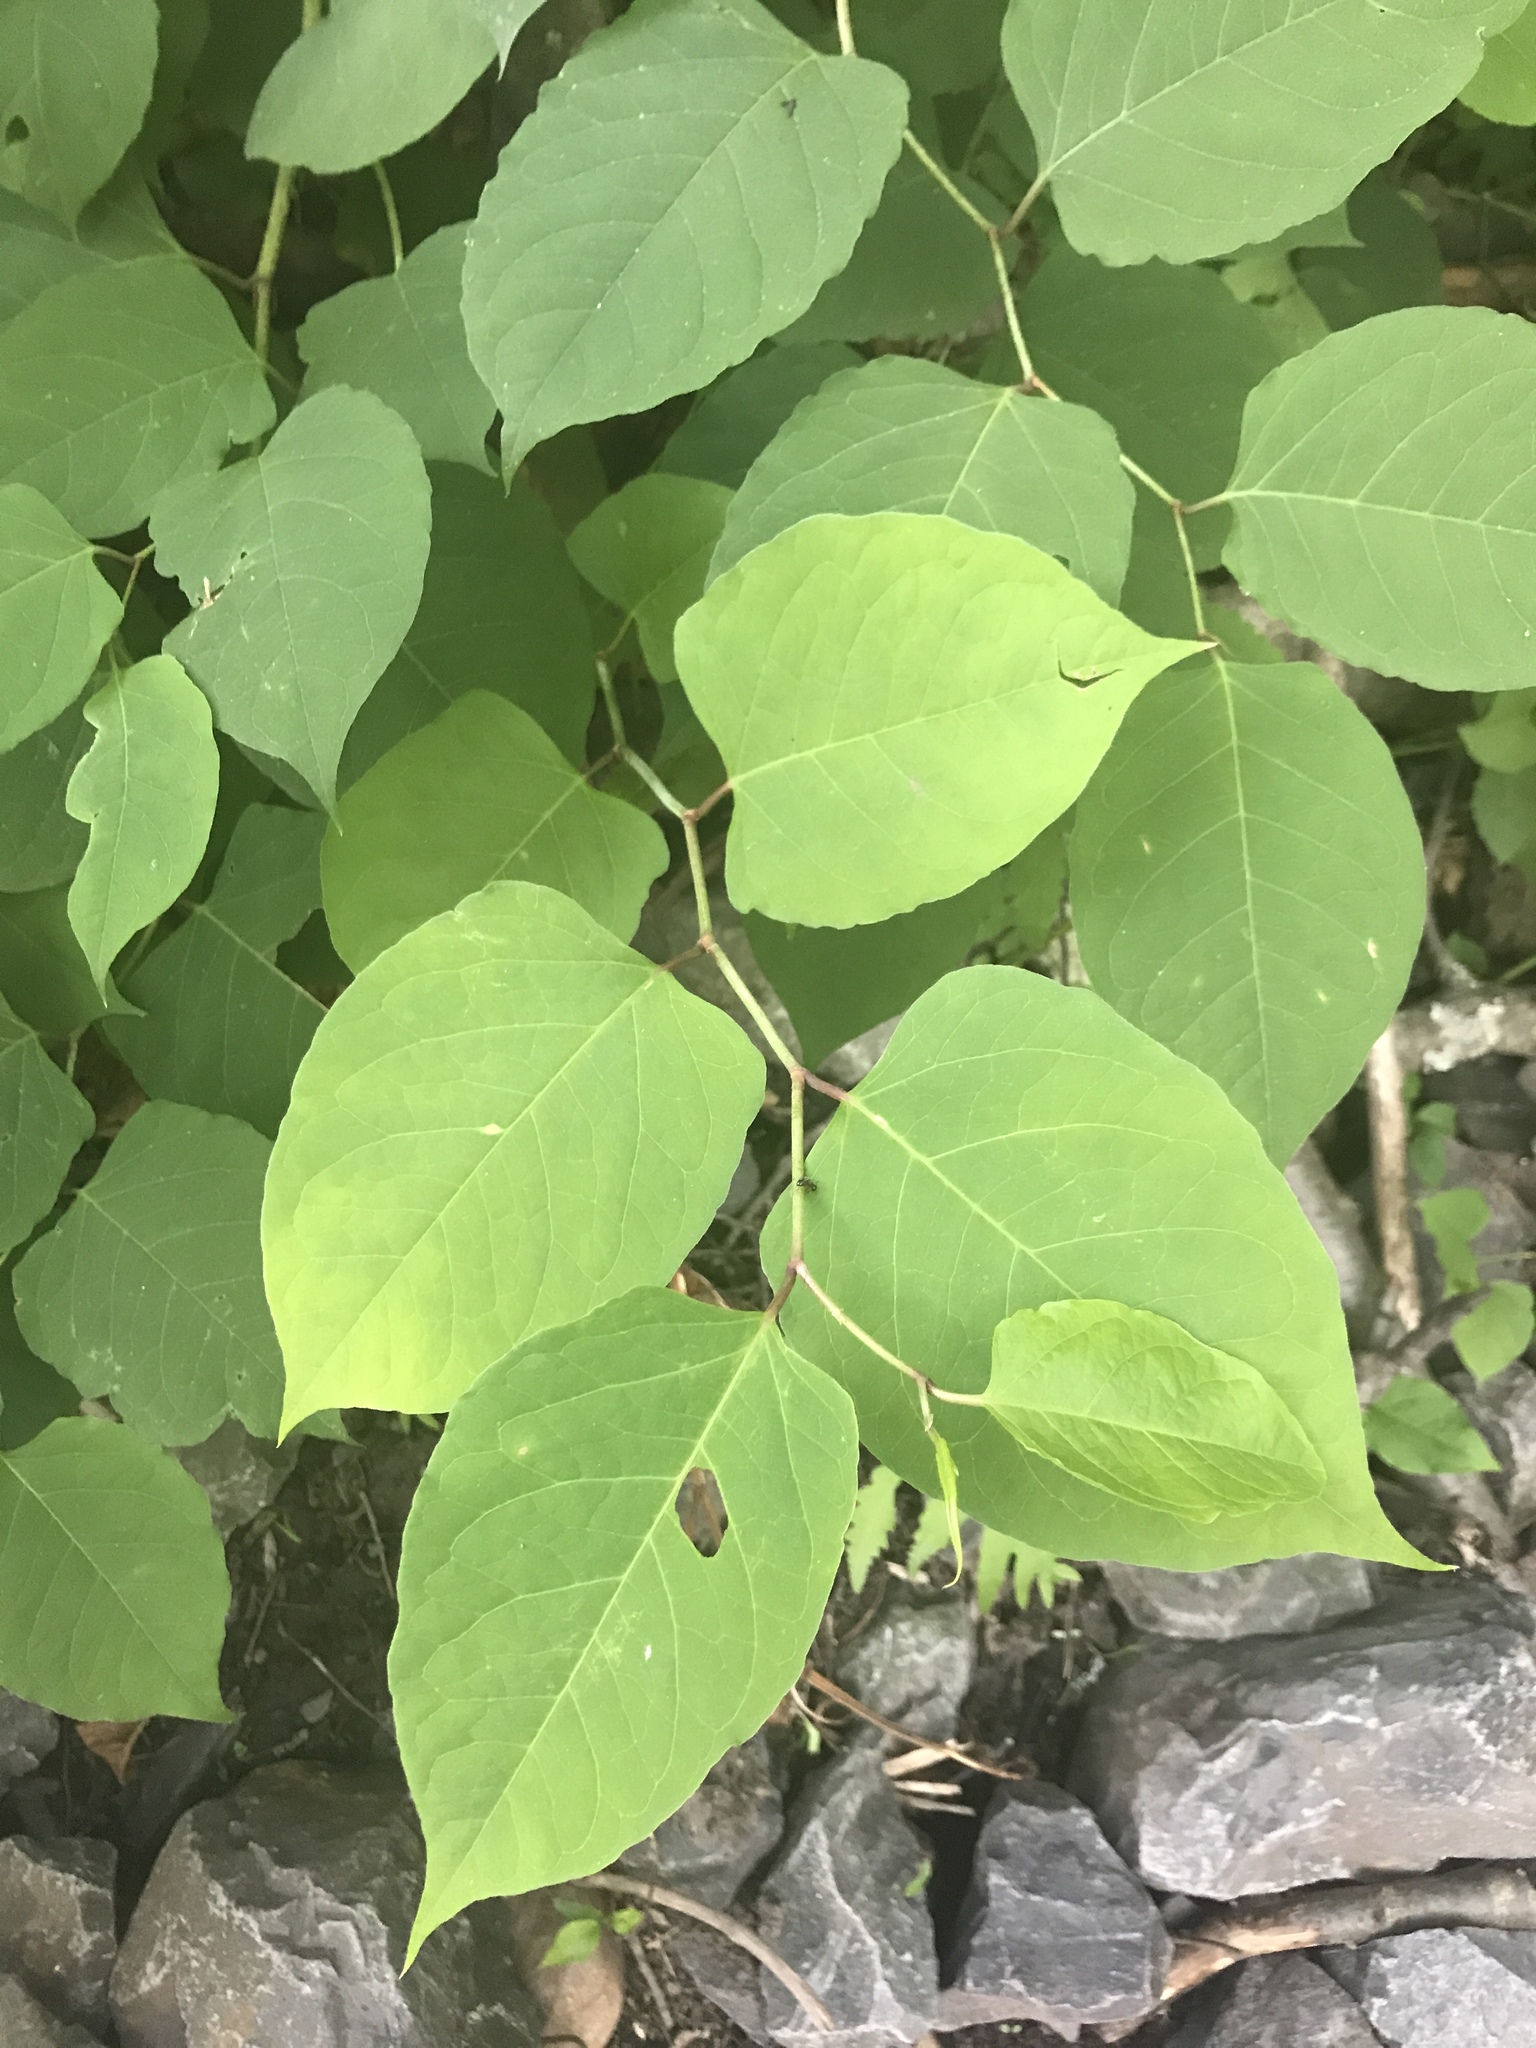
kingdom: Plantae
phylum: Tracheophyta
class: Magnoliopsida
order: Caryophyllales
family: Polygonaceae
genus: Reynoutria
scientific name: Reynoutria japonica
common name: Japanese knotweed
